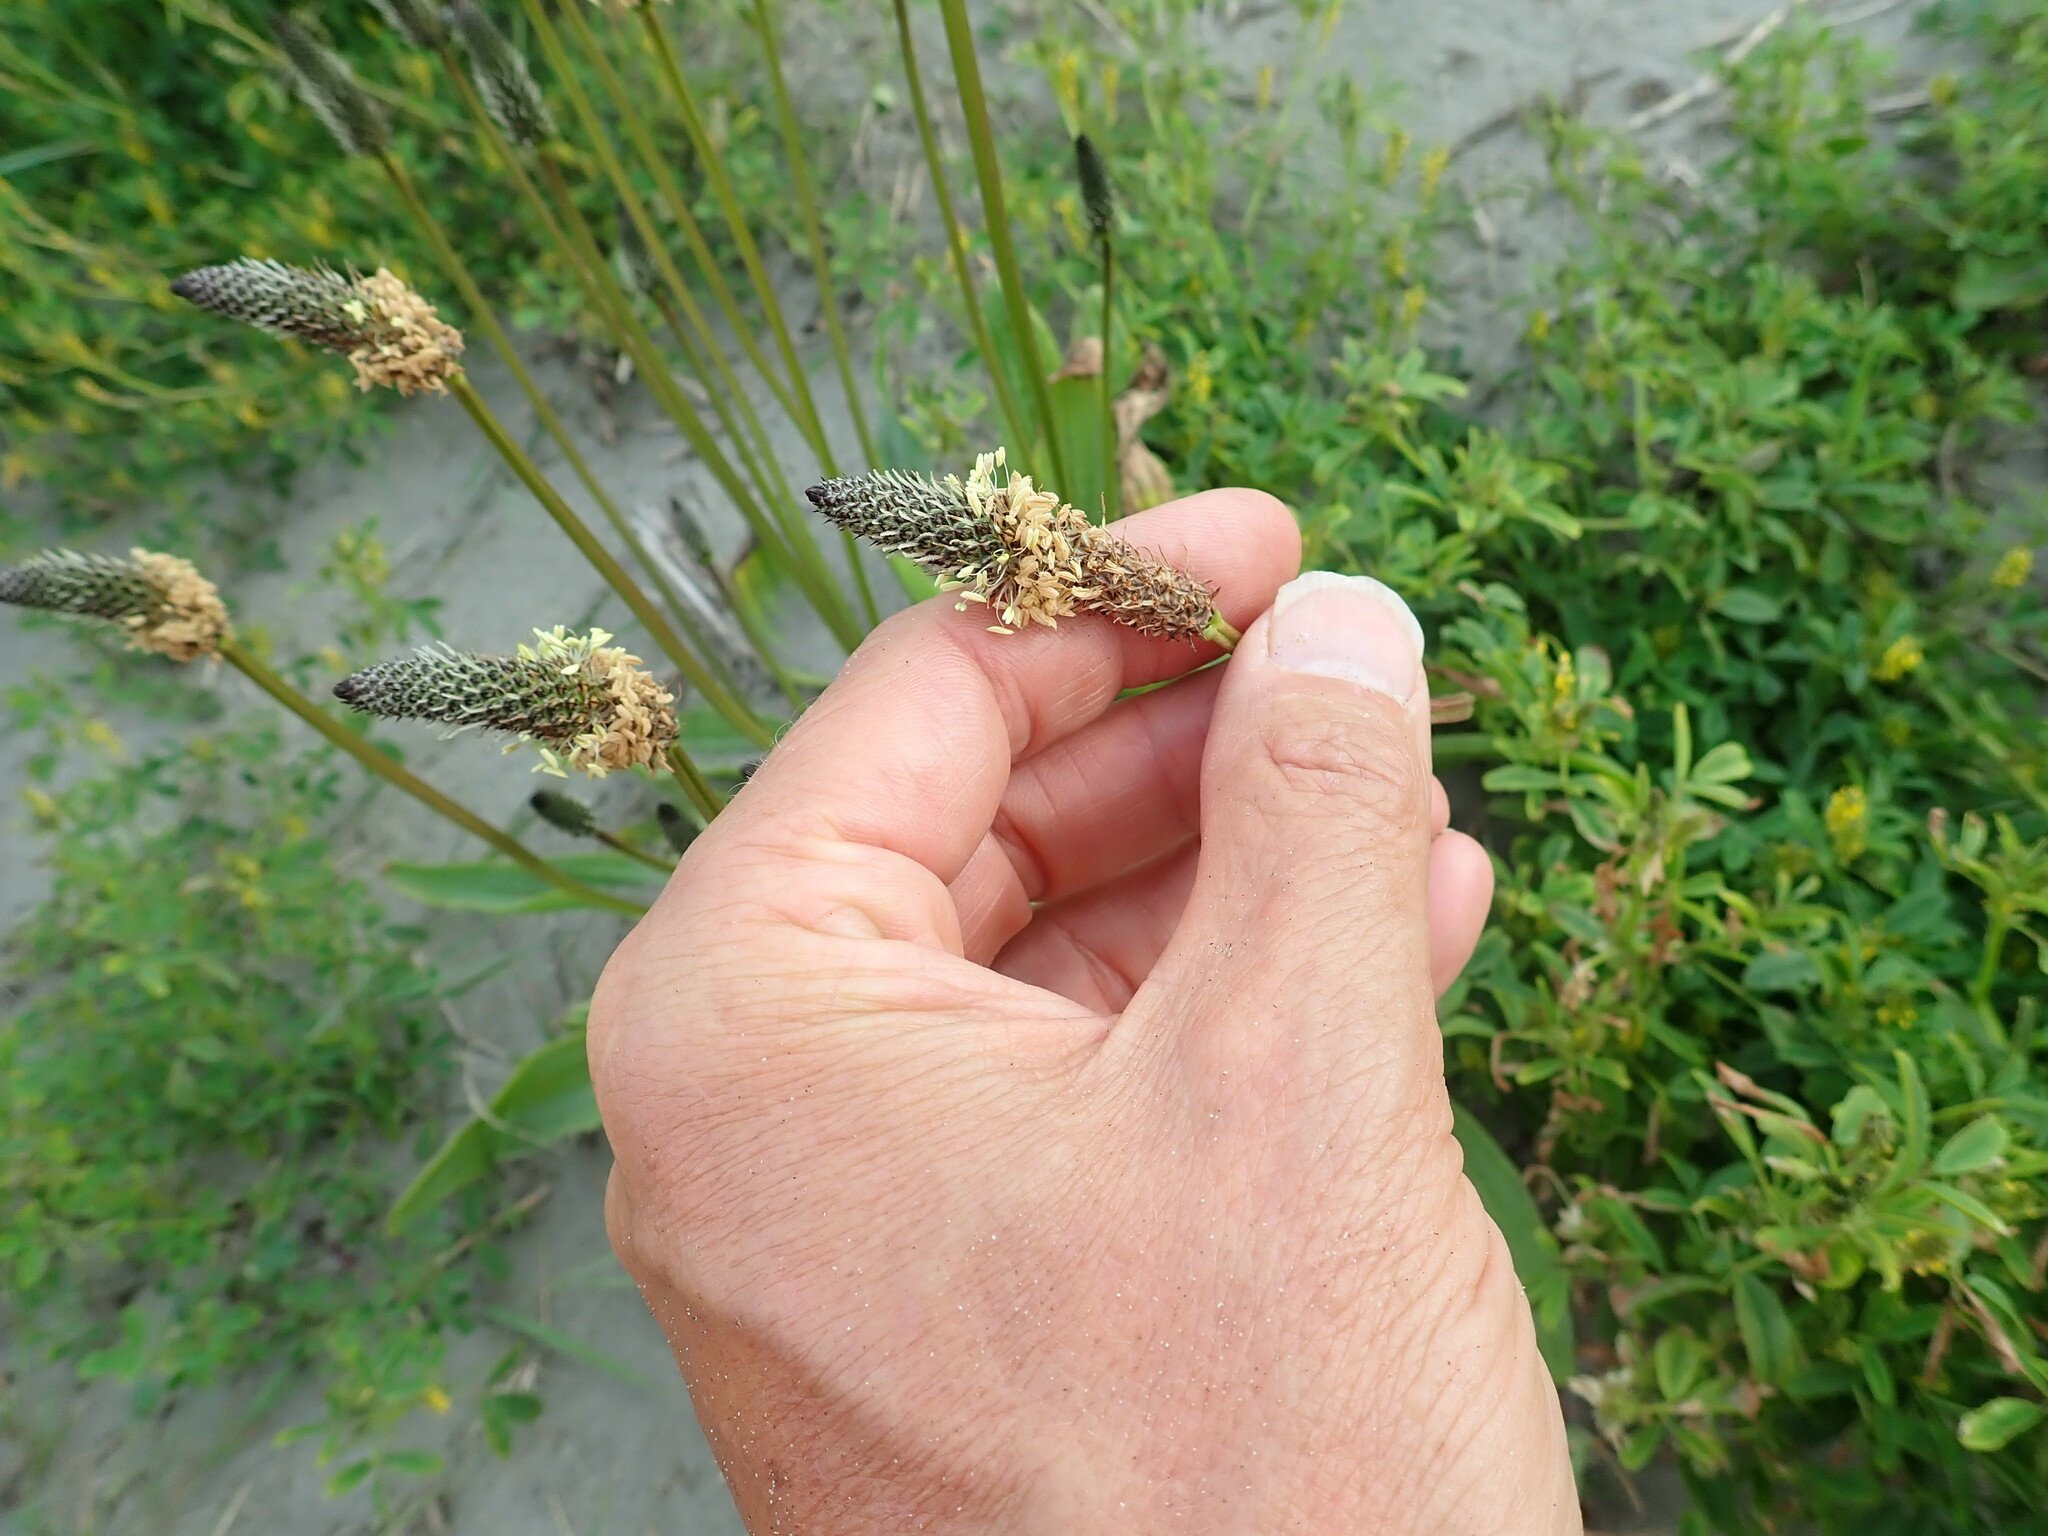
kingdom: Plantae
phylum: Tracheophyta
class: Magnoliopsida
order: Lamiales
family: Plantaginaceae
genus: Plantago
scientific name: Plantago lanceolata
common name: Ribwort plantain
